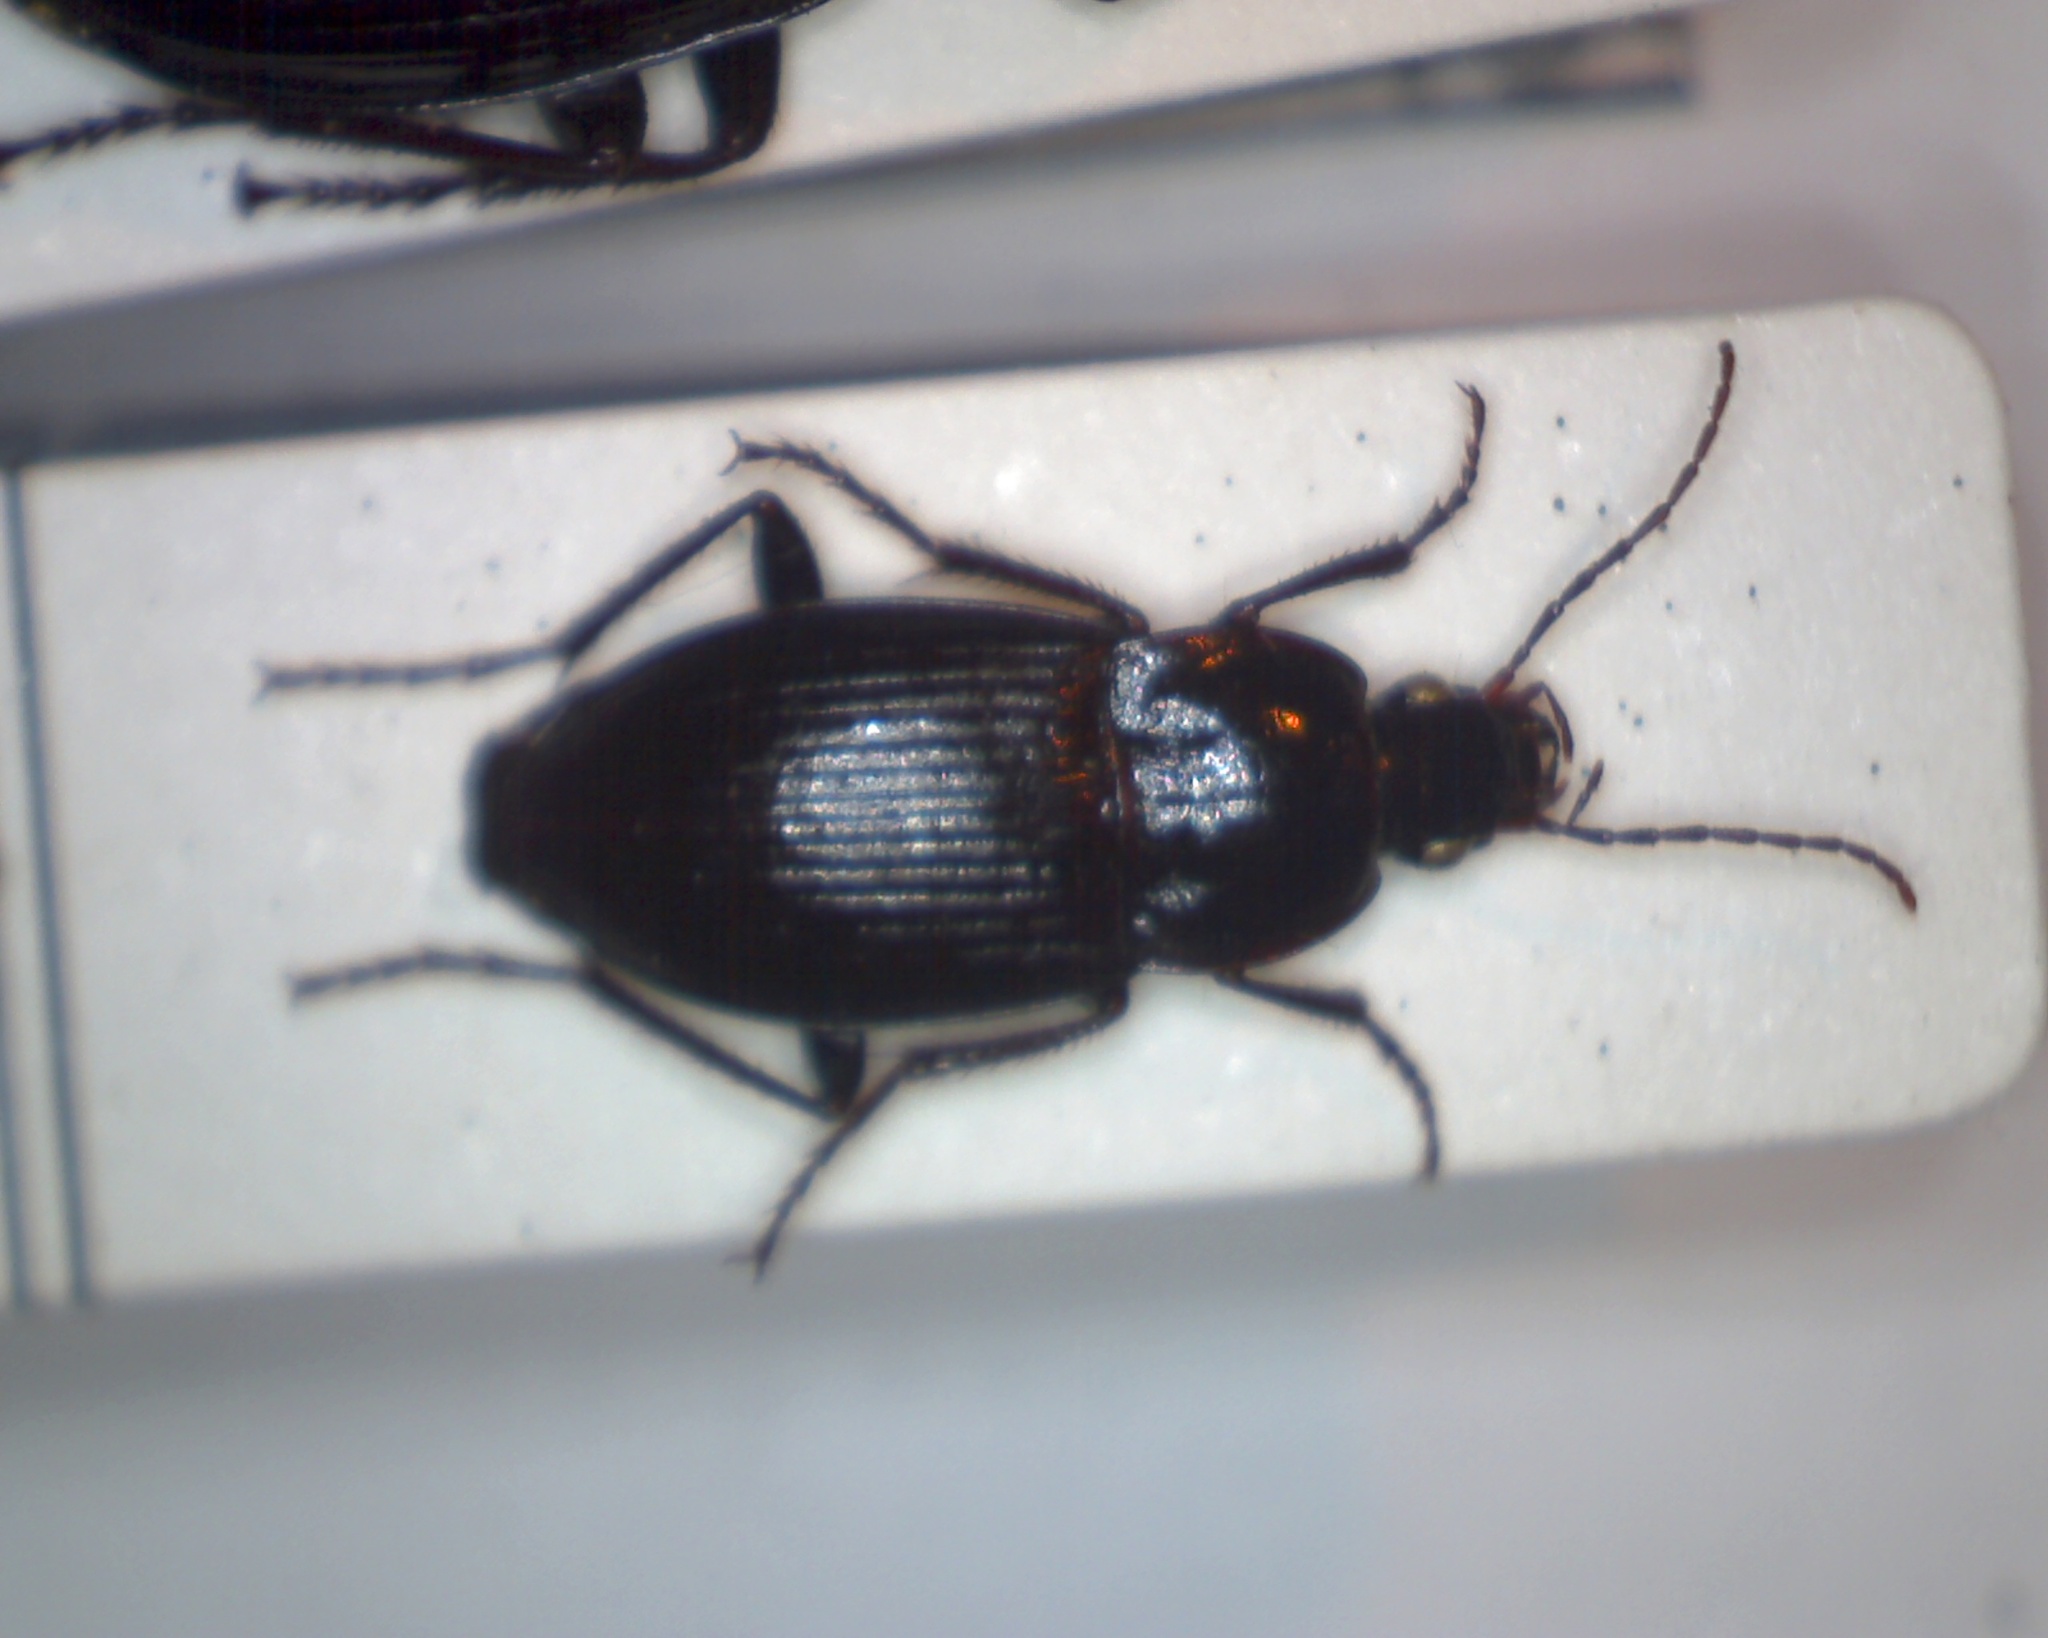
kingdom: Animalia
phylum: Arthropoda
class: Insecta
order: Coleoptera
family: Carabidae
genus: Calathus
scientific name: Calathus fuscipes
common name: Dark-footed harp ground beetle
